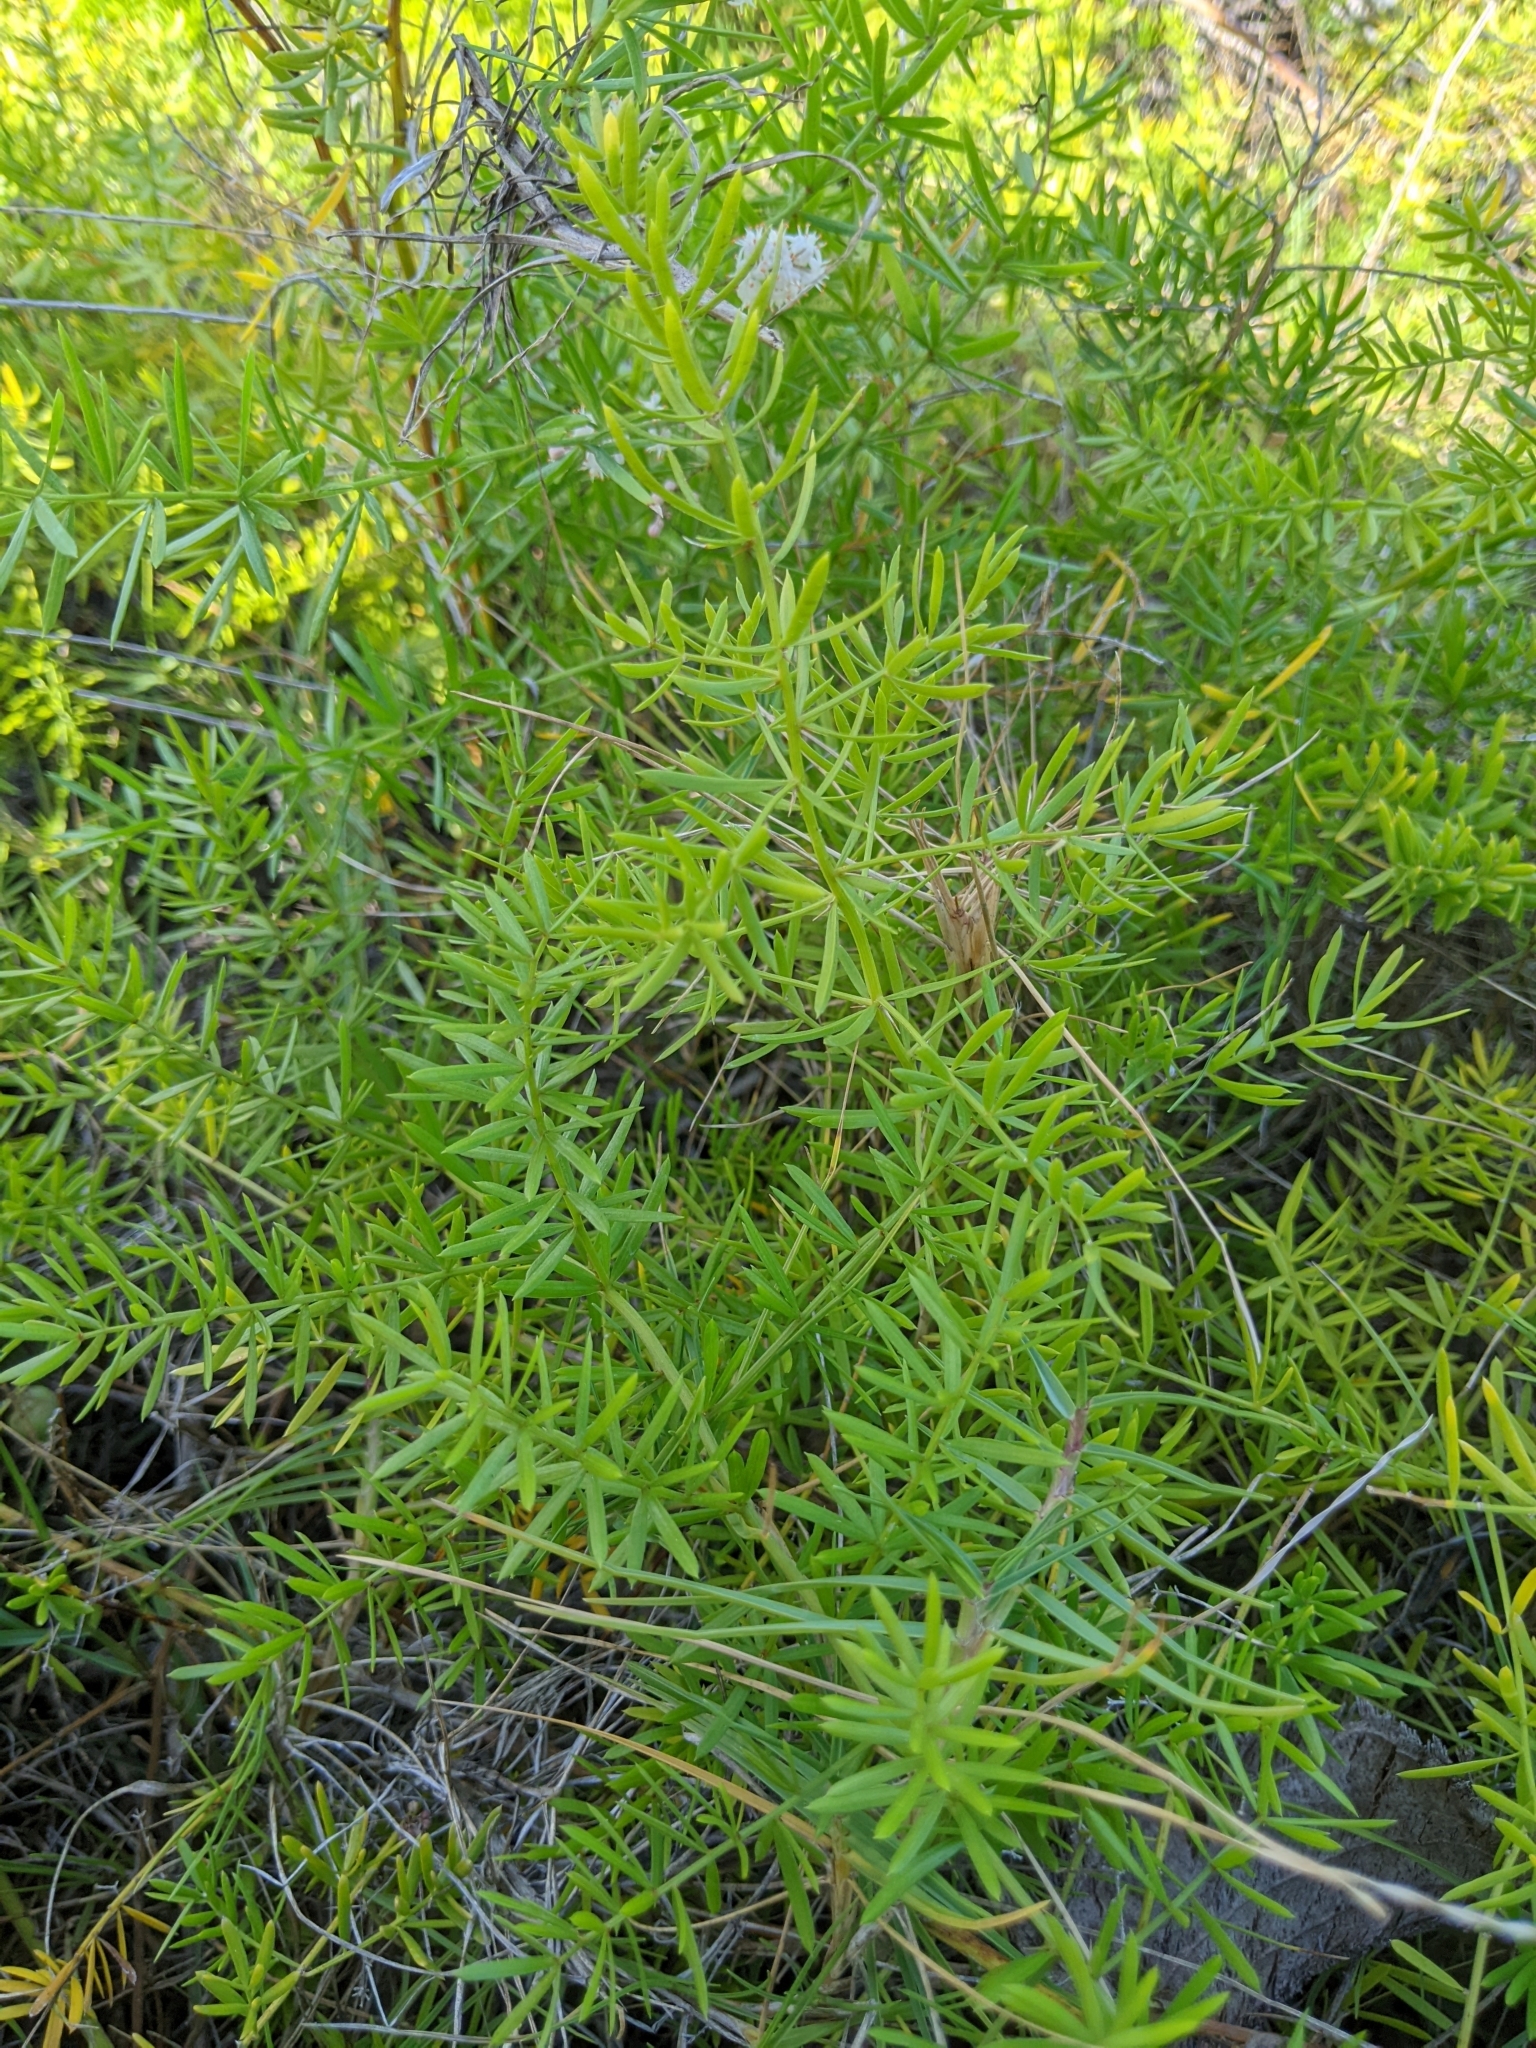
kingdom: Plantae
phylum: Tracheophyta
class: Liliopsida
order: Asparagales
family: Asparagaceae
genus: Asparagus
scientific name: Asparagus aethiopicus
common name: Sprenger's asparagus fern
